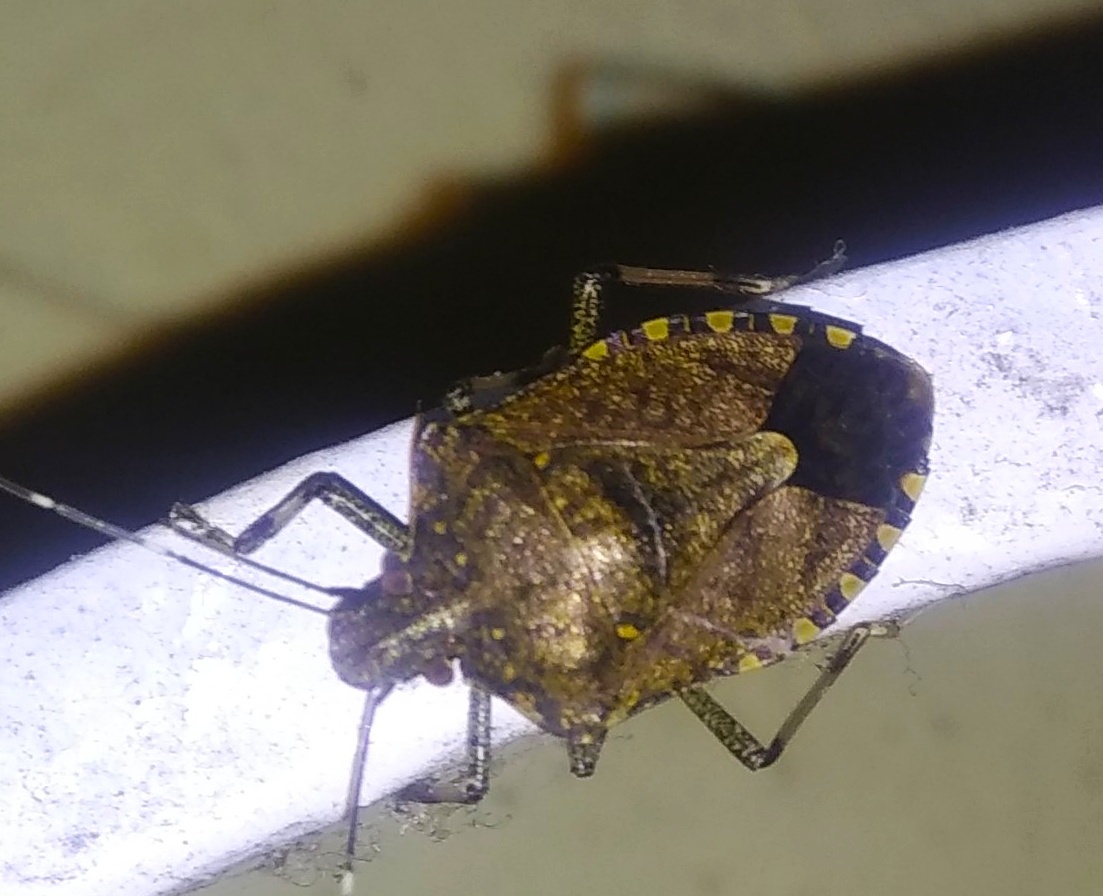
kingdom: Animalia
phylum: Arthropoda
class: Insecta
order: Hemiptera
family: Pentatomidae
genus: Halyomorpha
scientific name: Halyomorpha picus
